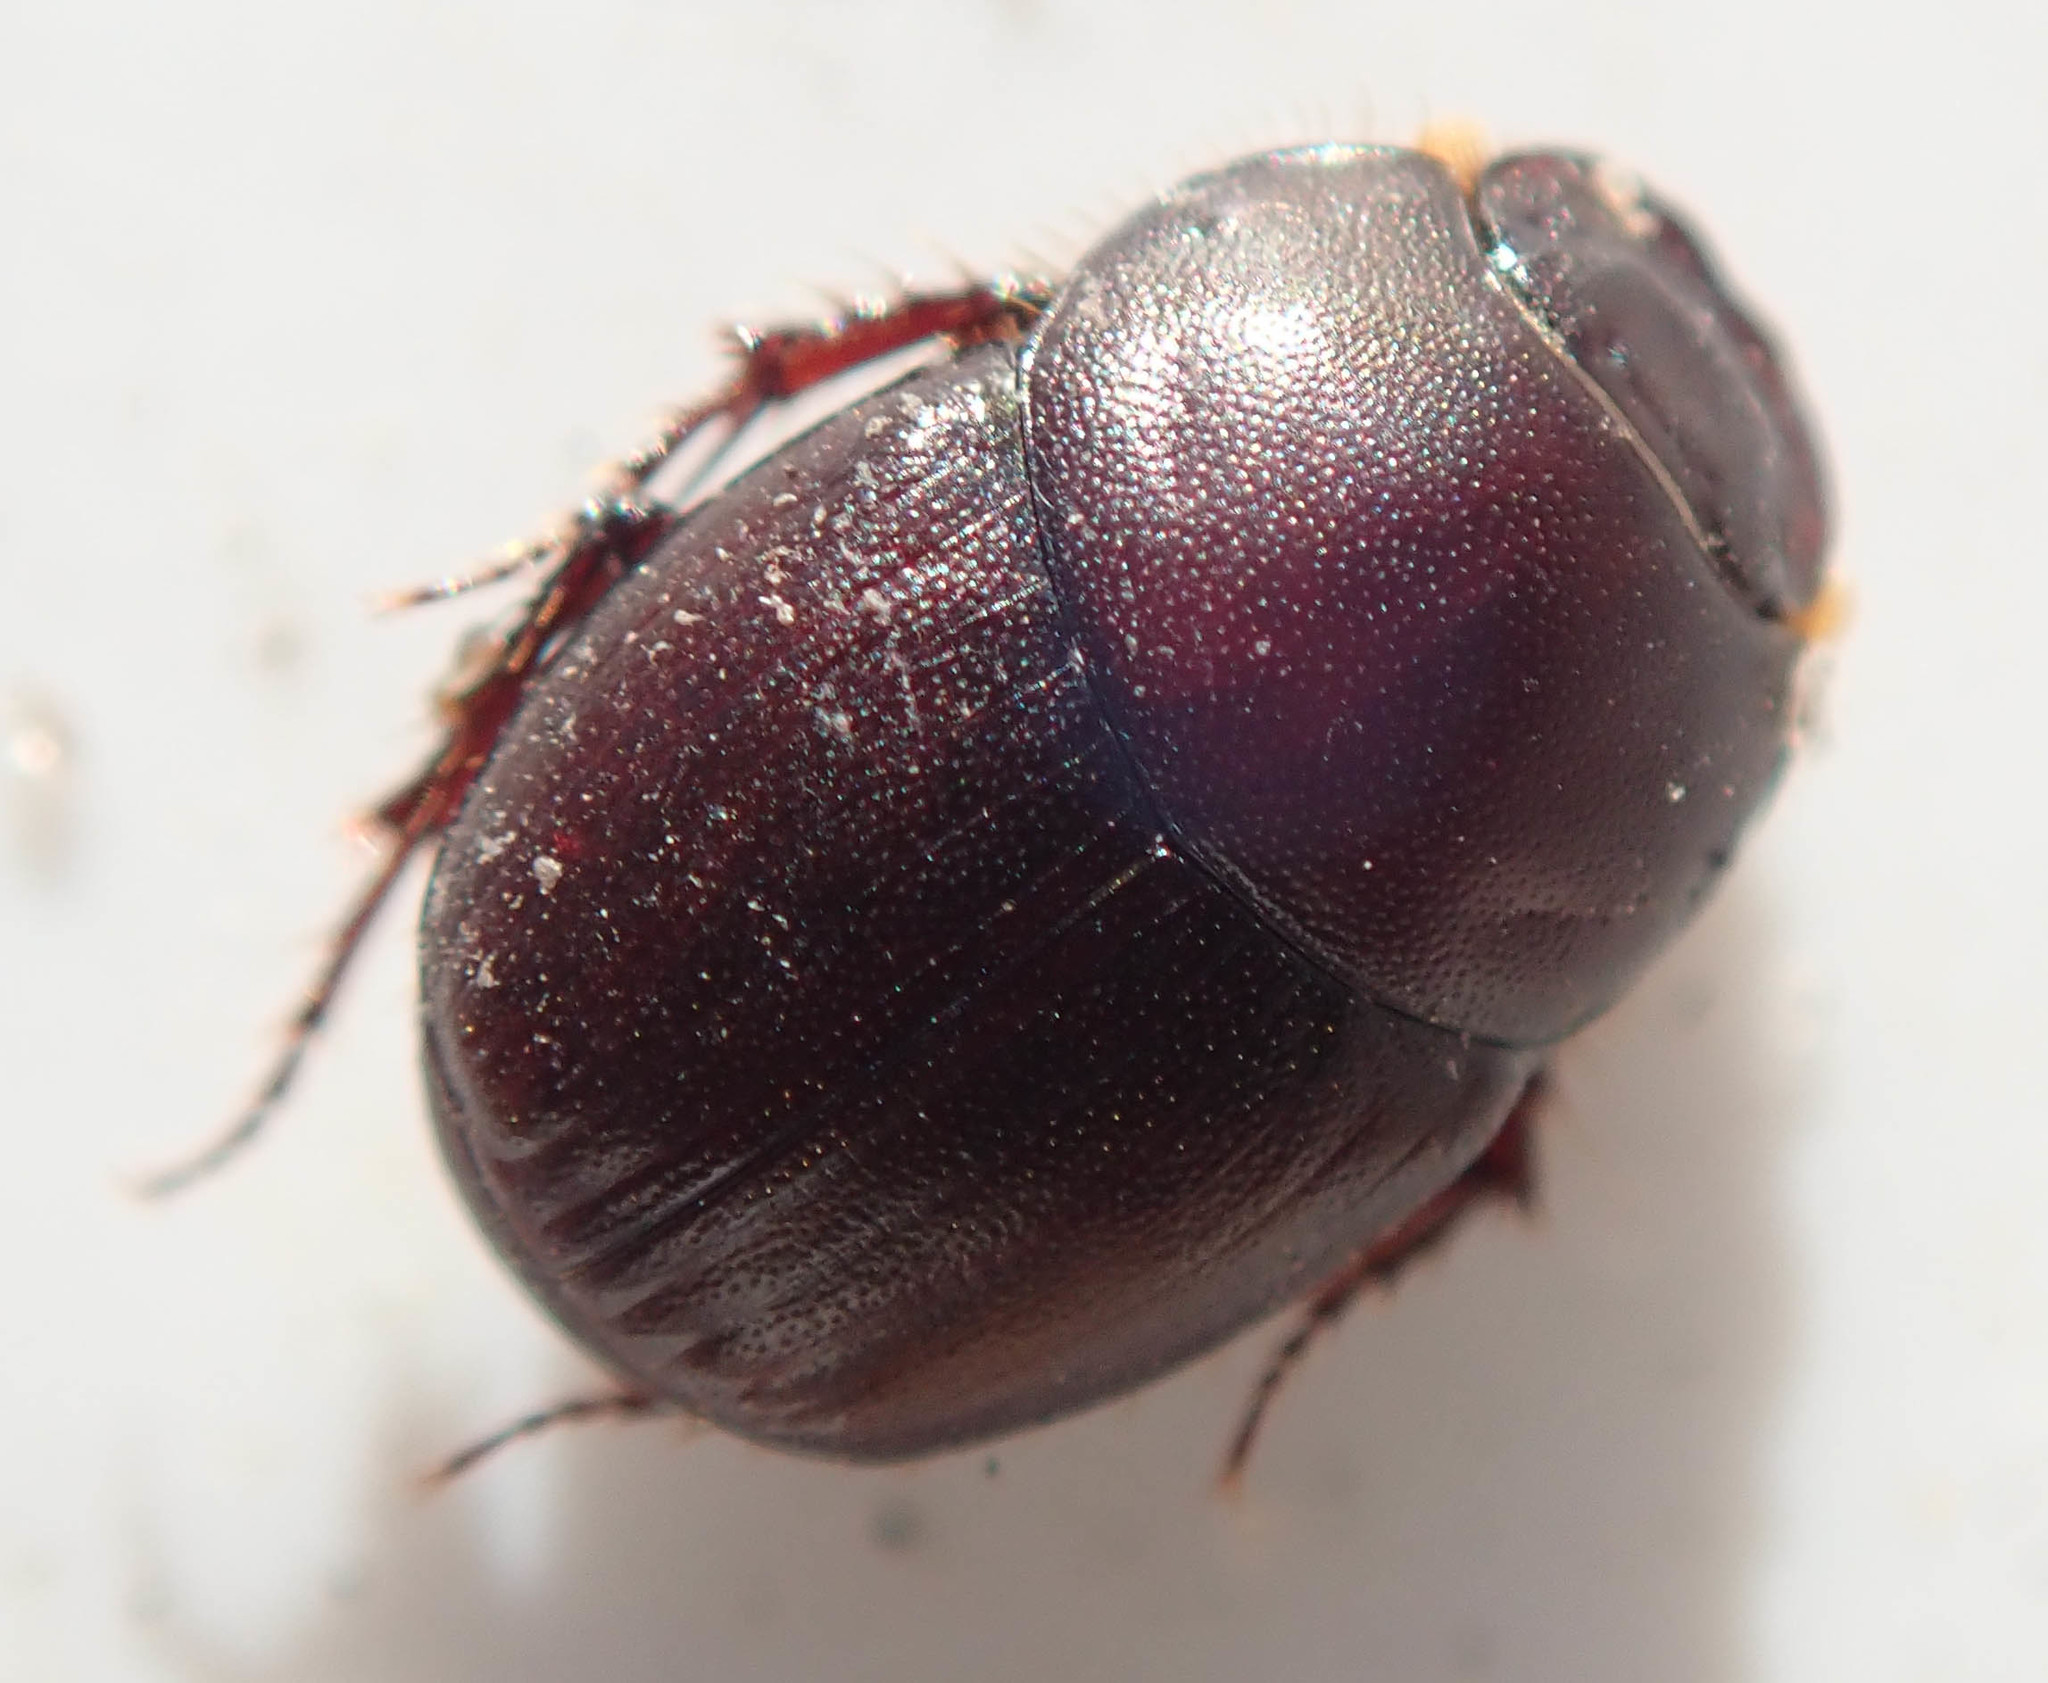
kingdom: Animalia
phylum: Arthropoda
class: Insecta
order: Coleoptera
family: Scarabaeidae
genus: Euonthophagus
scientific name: Euonthophagus carbonarius
